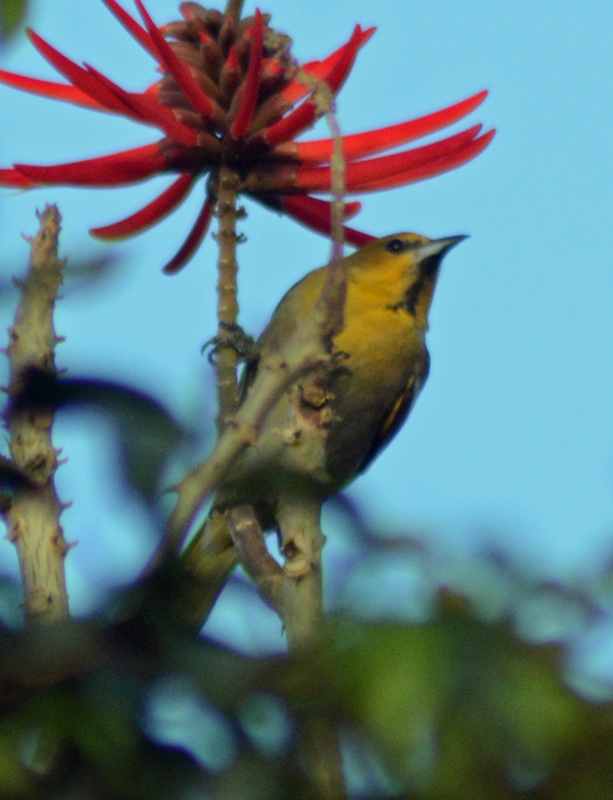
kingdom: Animalia
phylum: Chordata
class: Aves
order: Passeriformes
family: Icteridae
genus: Icterus
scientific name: Icterus abeillei
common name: Black-backed oriole
